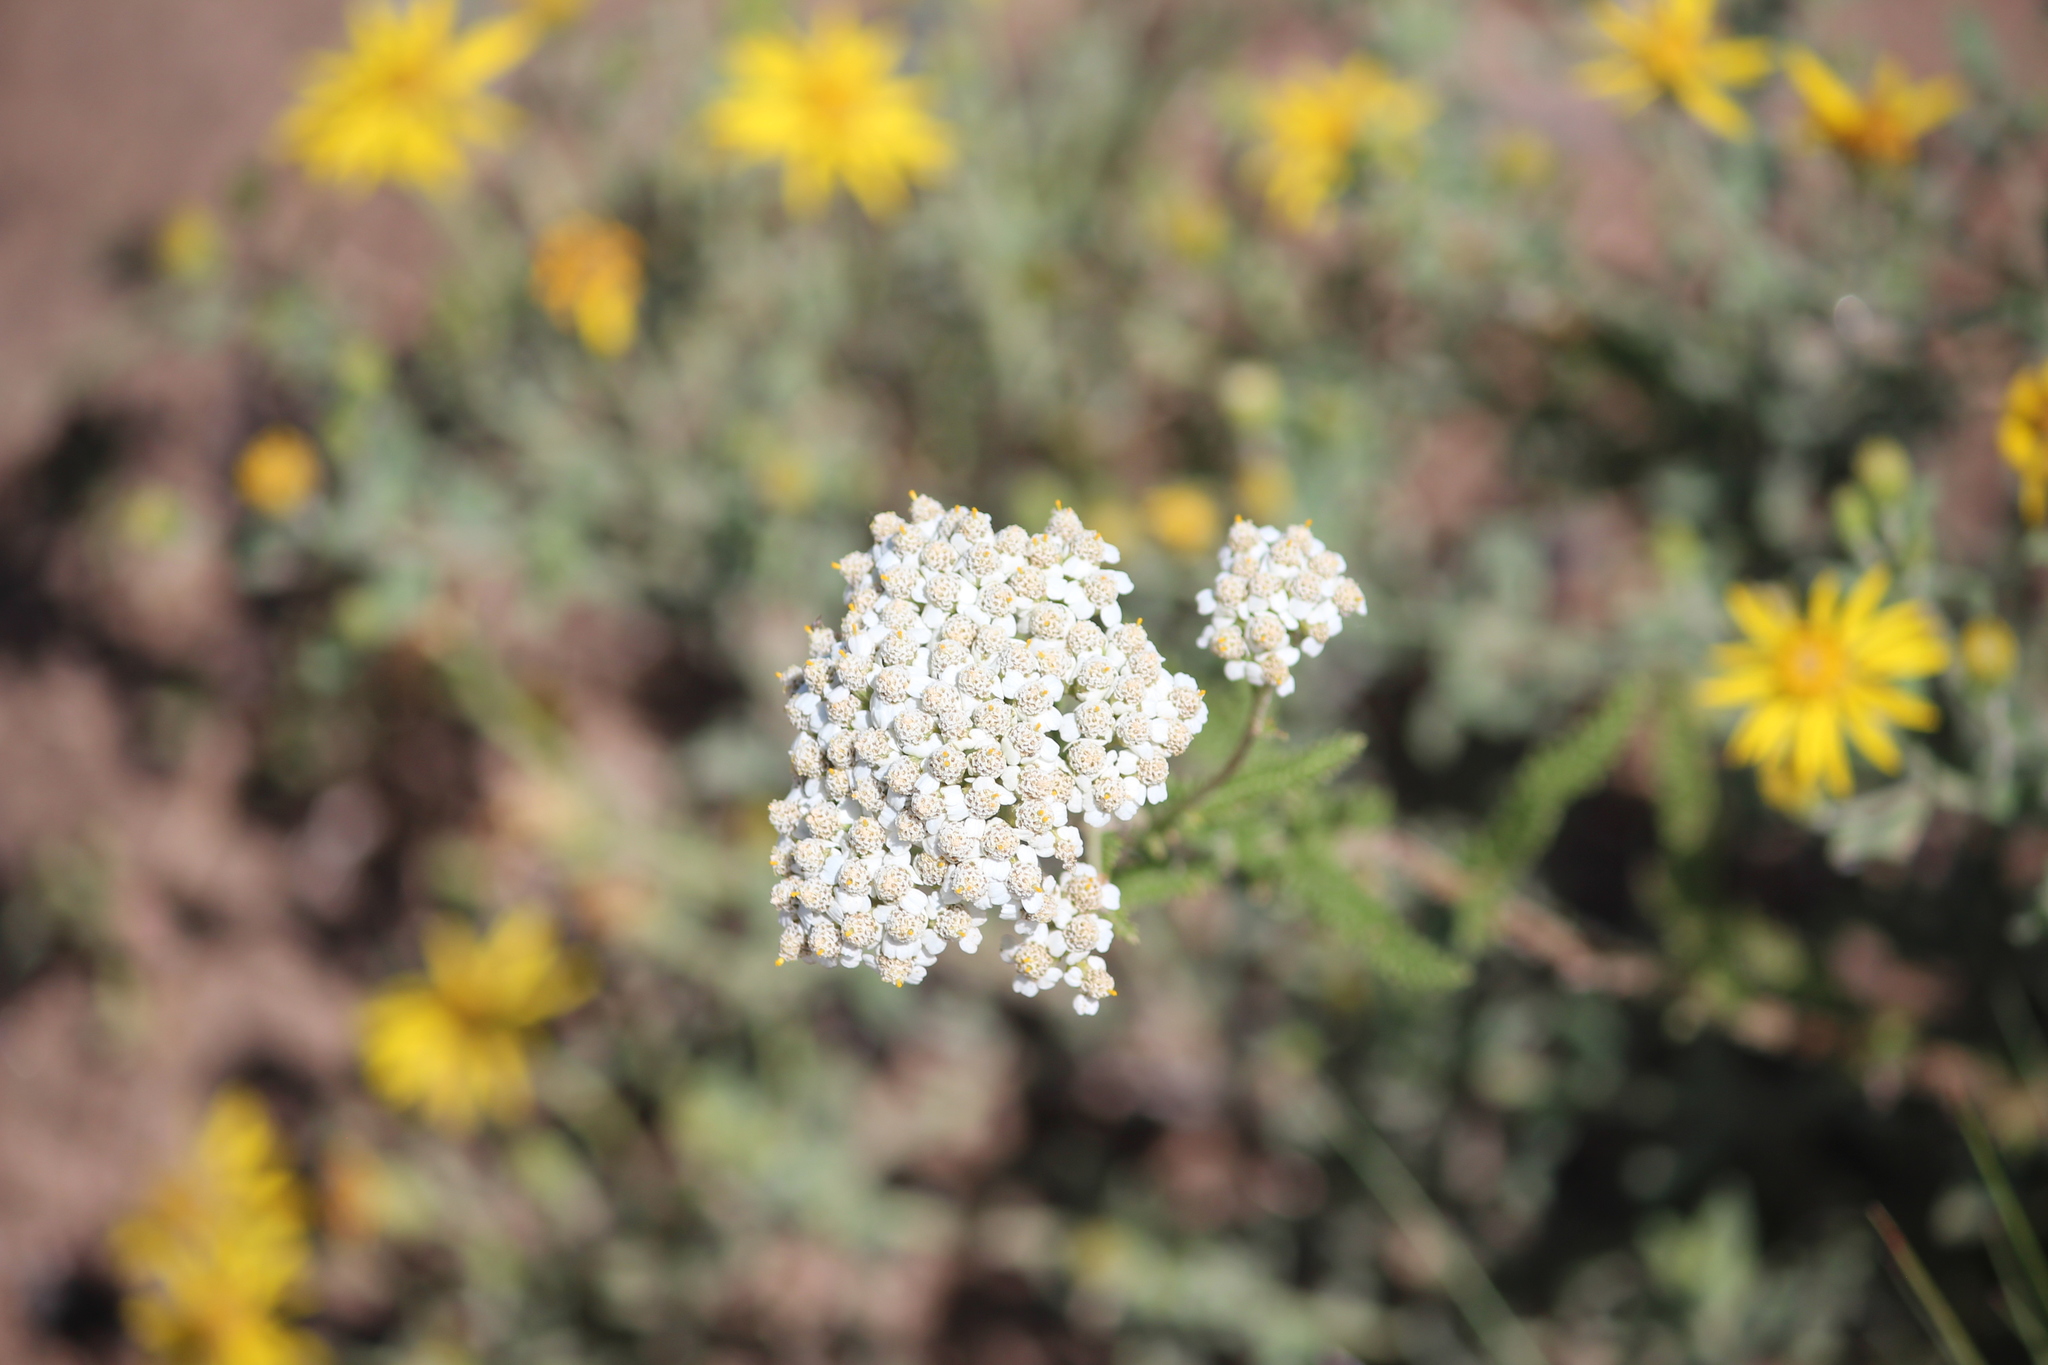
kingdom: Plantae
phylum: Tracheophyta
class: Magnoliopsida
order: Asterales
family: Asteraceae
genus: Achillea
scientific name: Achillea millefolium
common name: Yarrow
